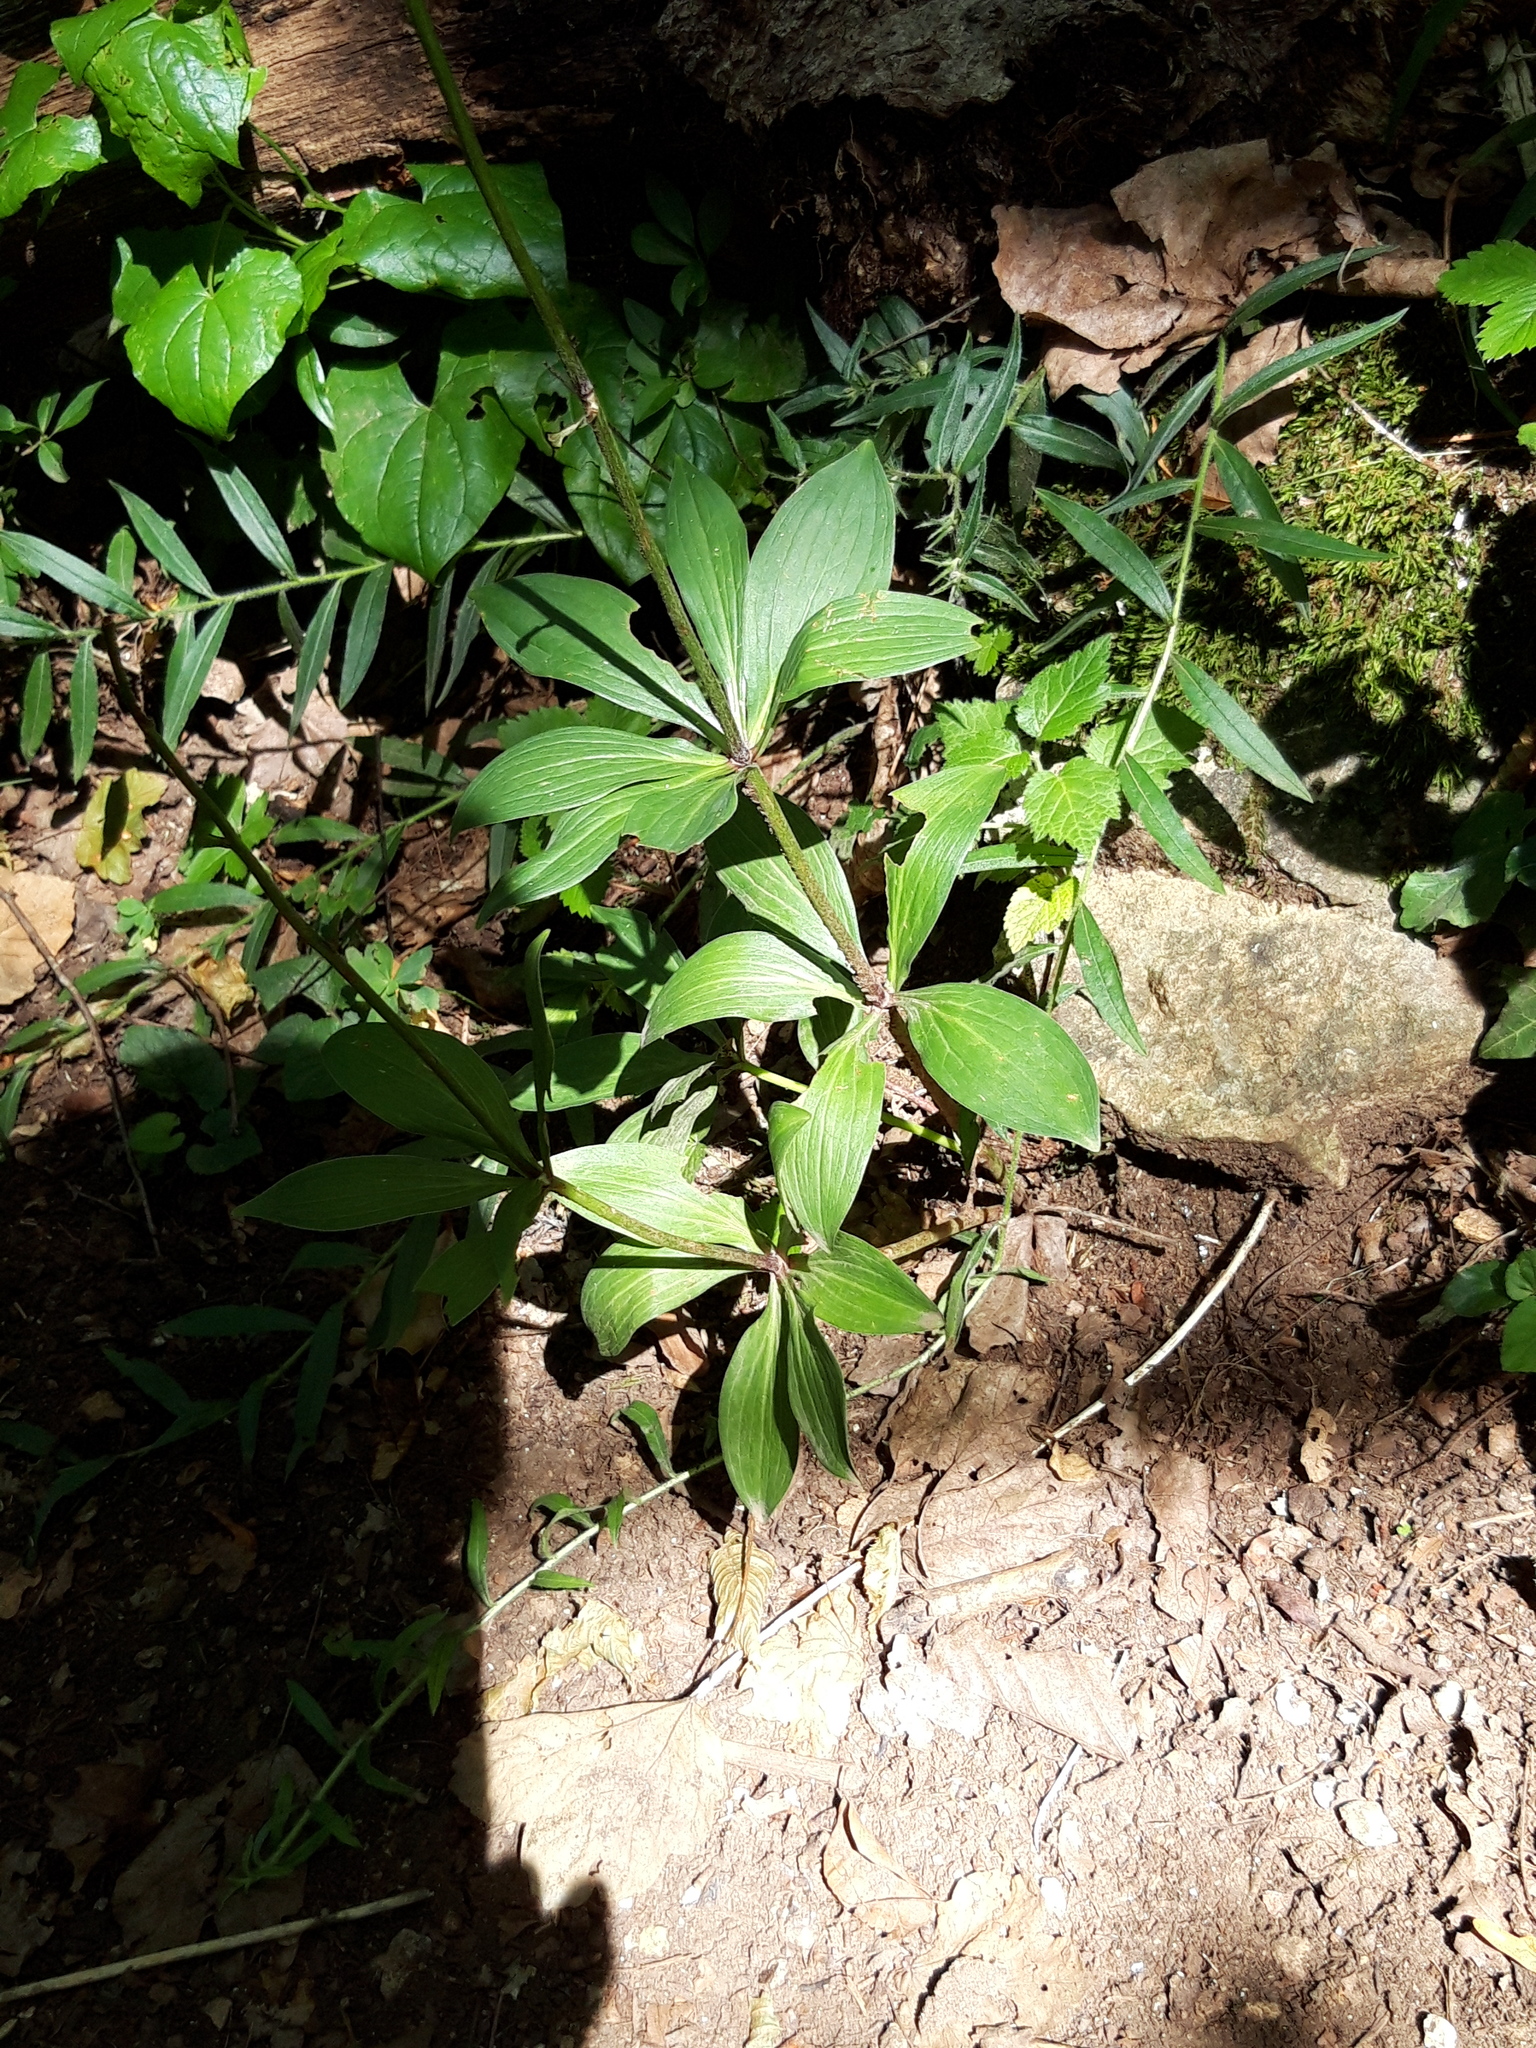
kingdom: Plantae
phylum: Tracheophyta
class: Liliopsida
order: Liliales
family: Liliaceae
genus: Lilium
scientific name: Lilium martagon
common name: Martagon lily
